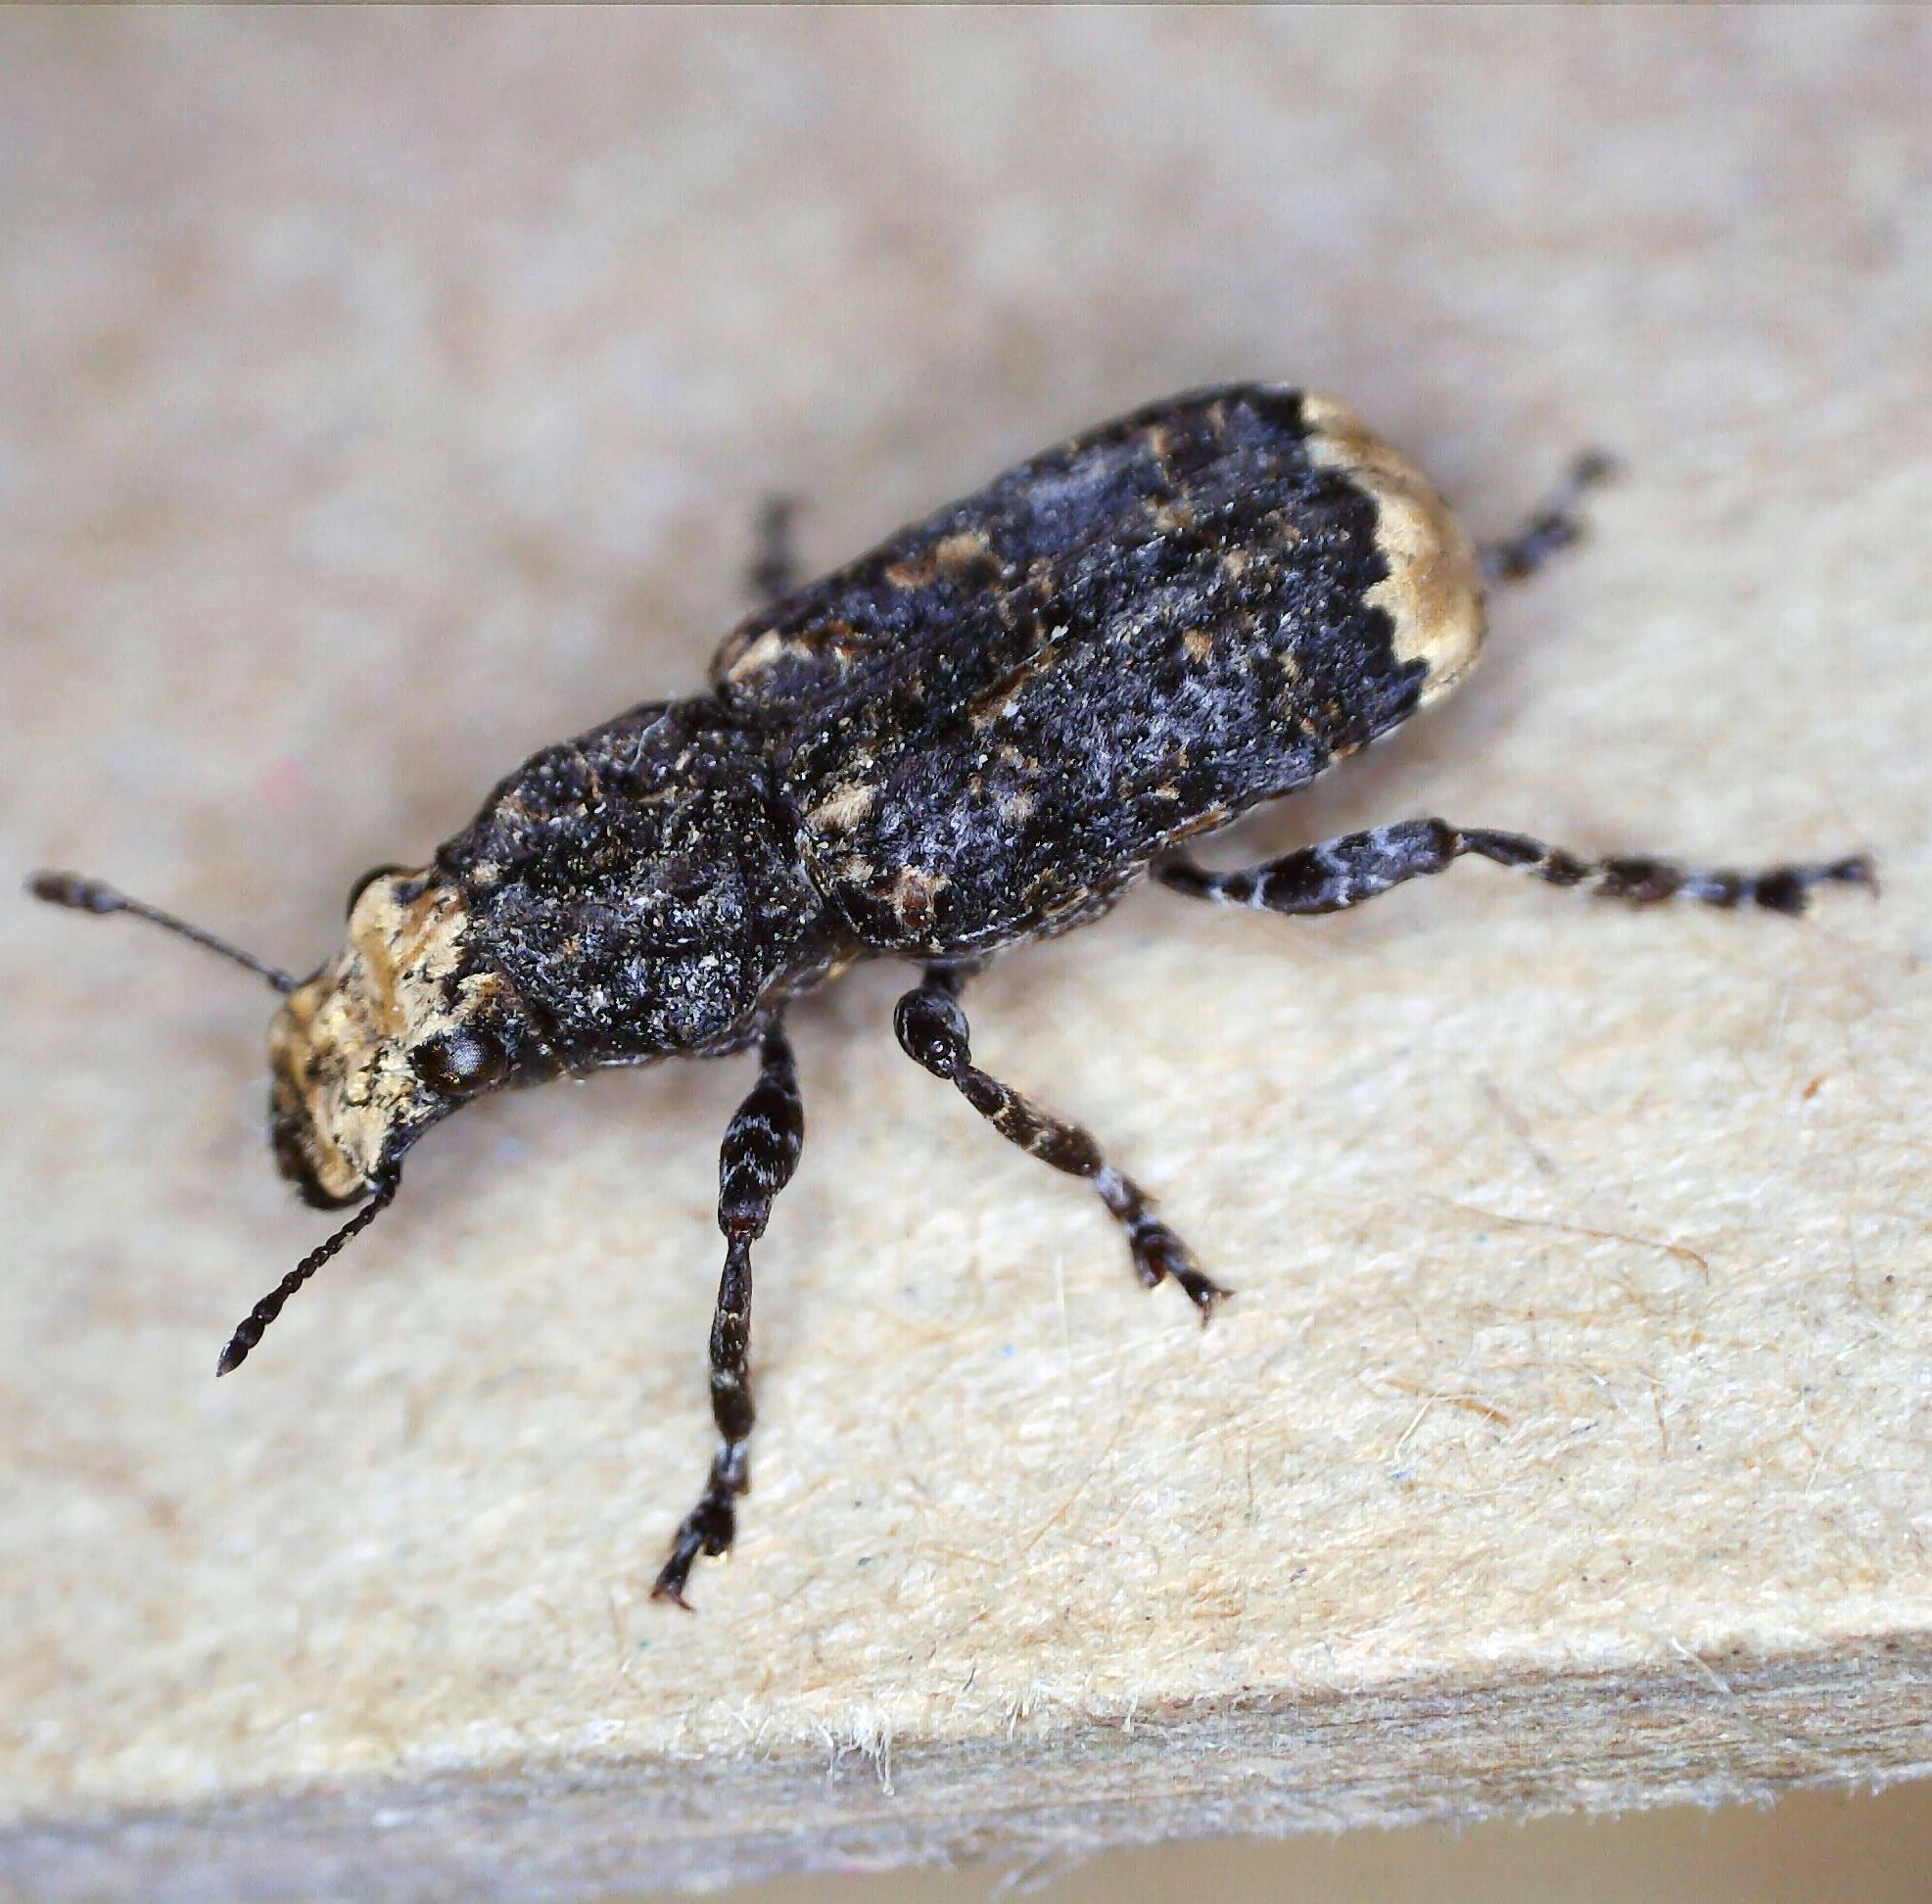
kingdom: Animalia
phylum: Arthropoda
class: Insecta
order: Coleoptera
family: Anthribidae
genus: Platyrhinus
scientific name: Platyrhinus resinosus
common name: Cramp-ball fungus weevil
